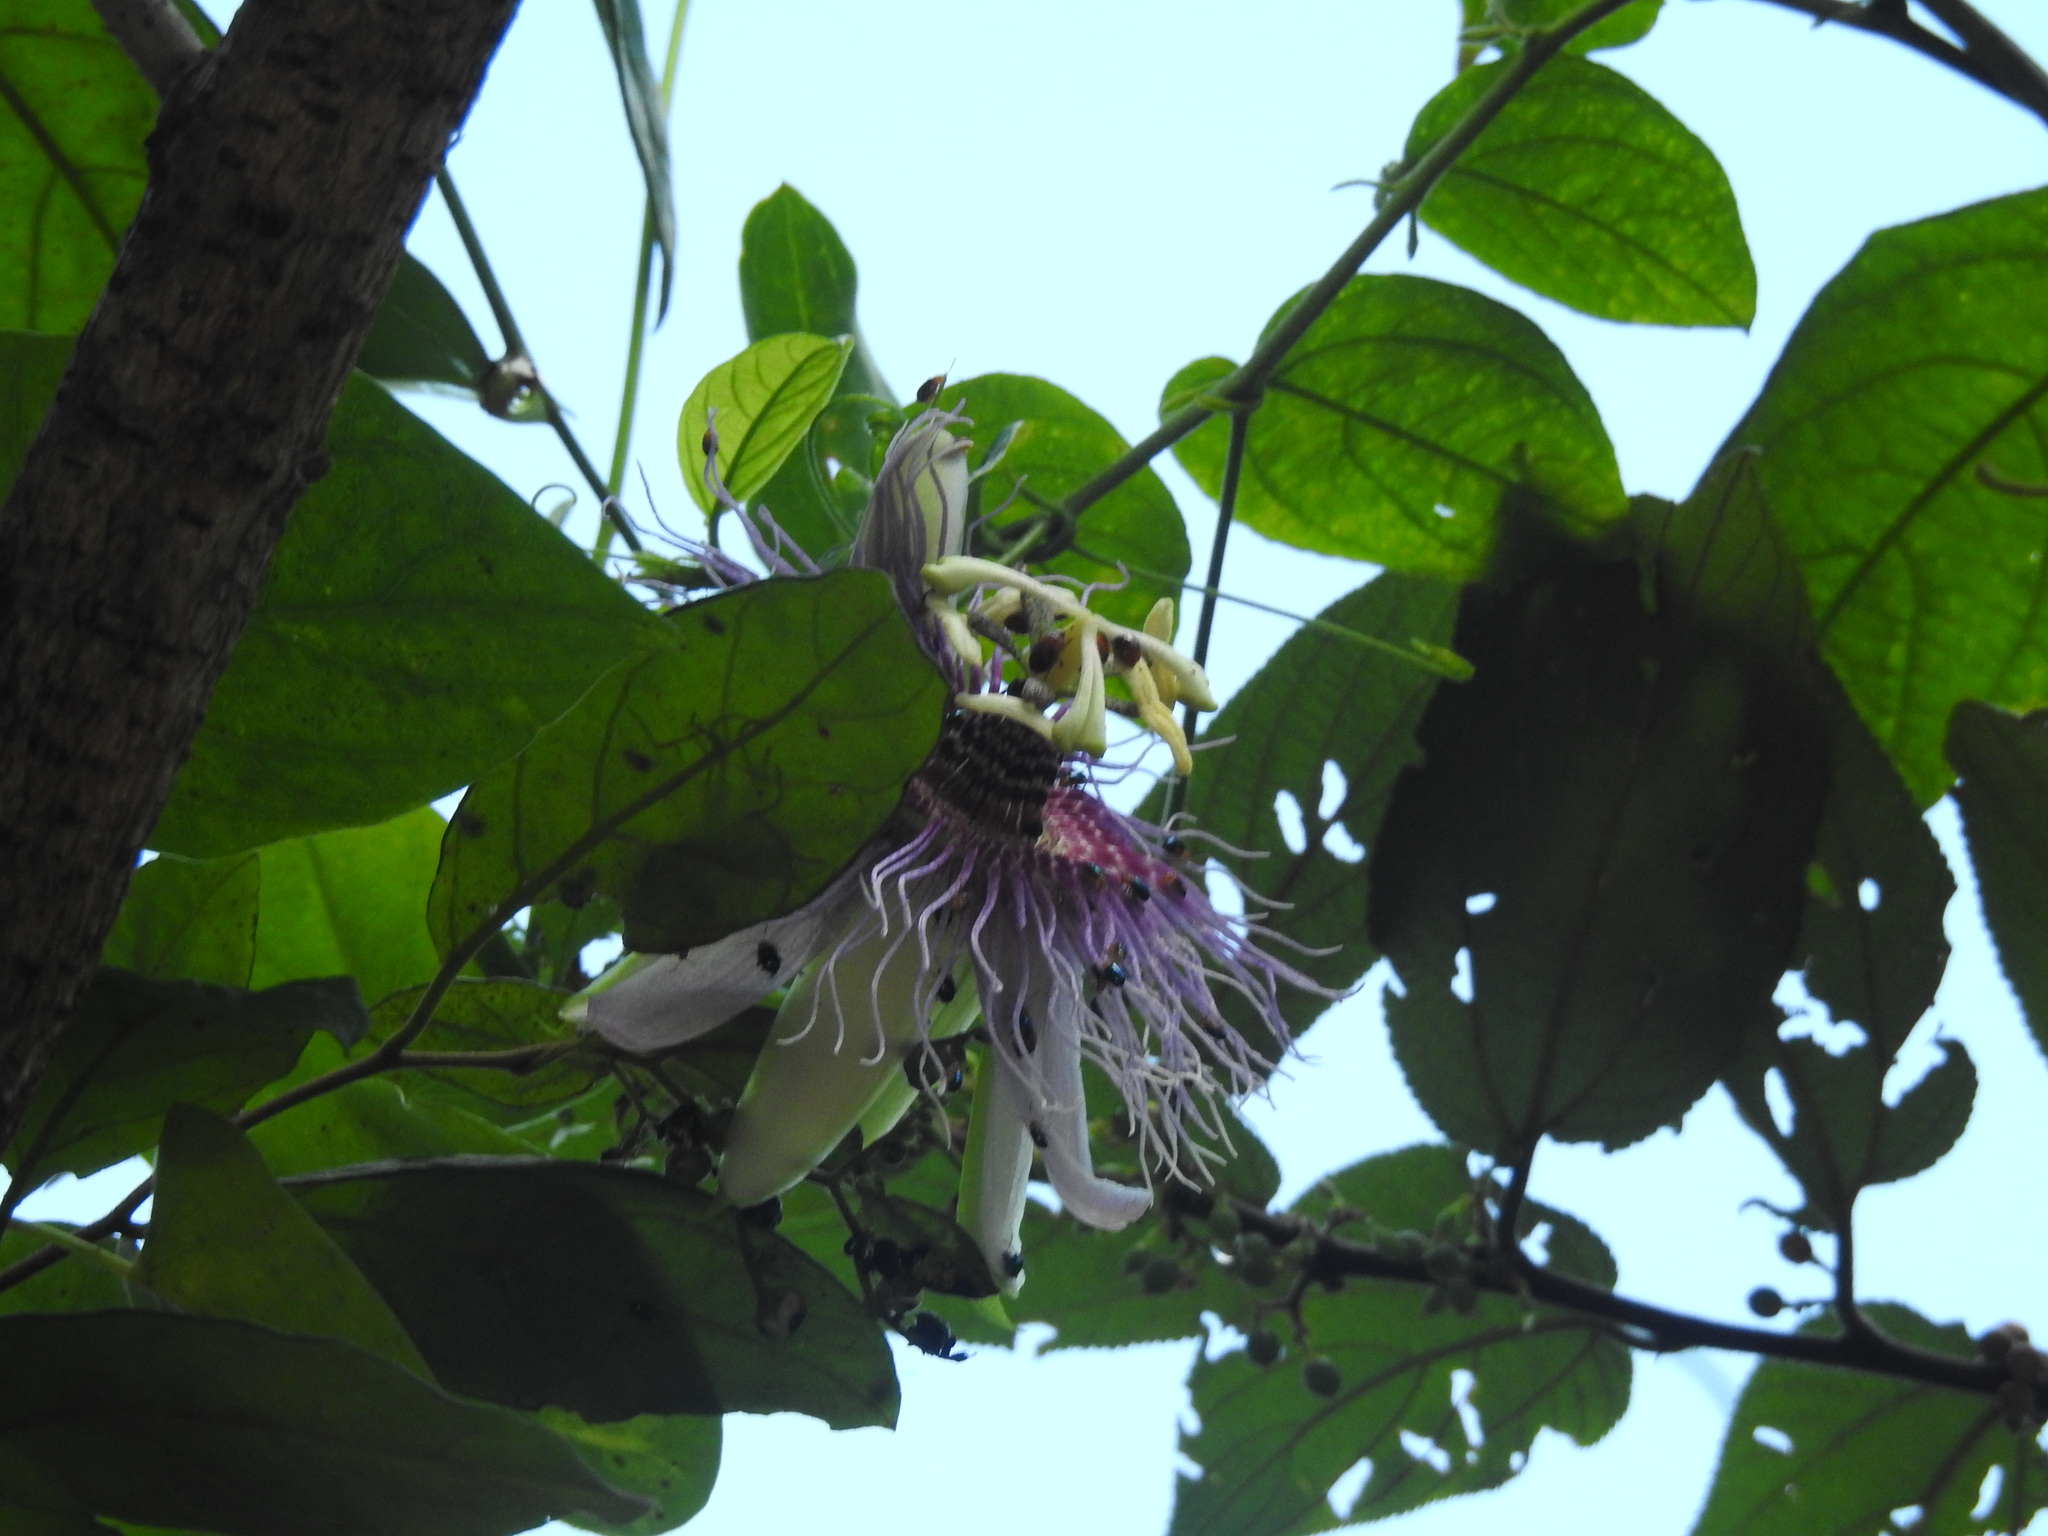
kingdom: Plantae
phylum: Tracheophyta
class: Magnoliopsida
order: Malpighiales
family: Passifloraceae
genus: Passiflora
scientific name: Passiflora serratifolia
